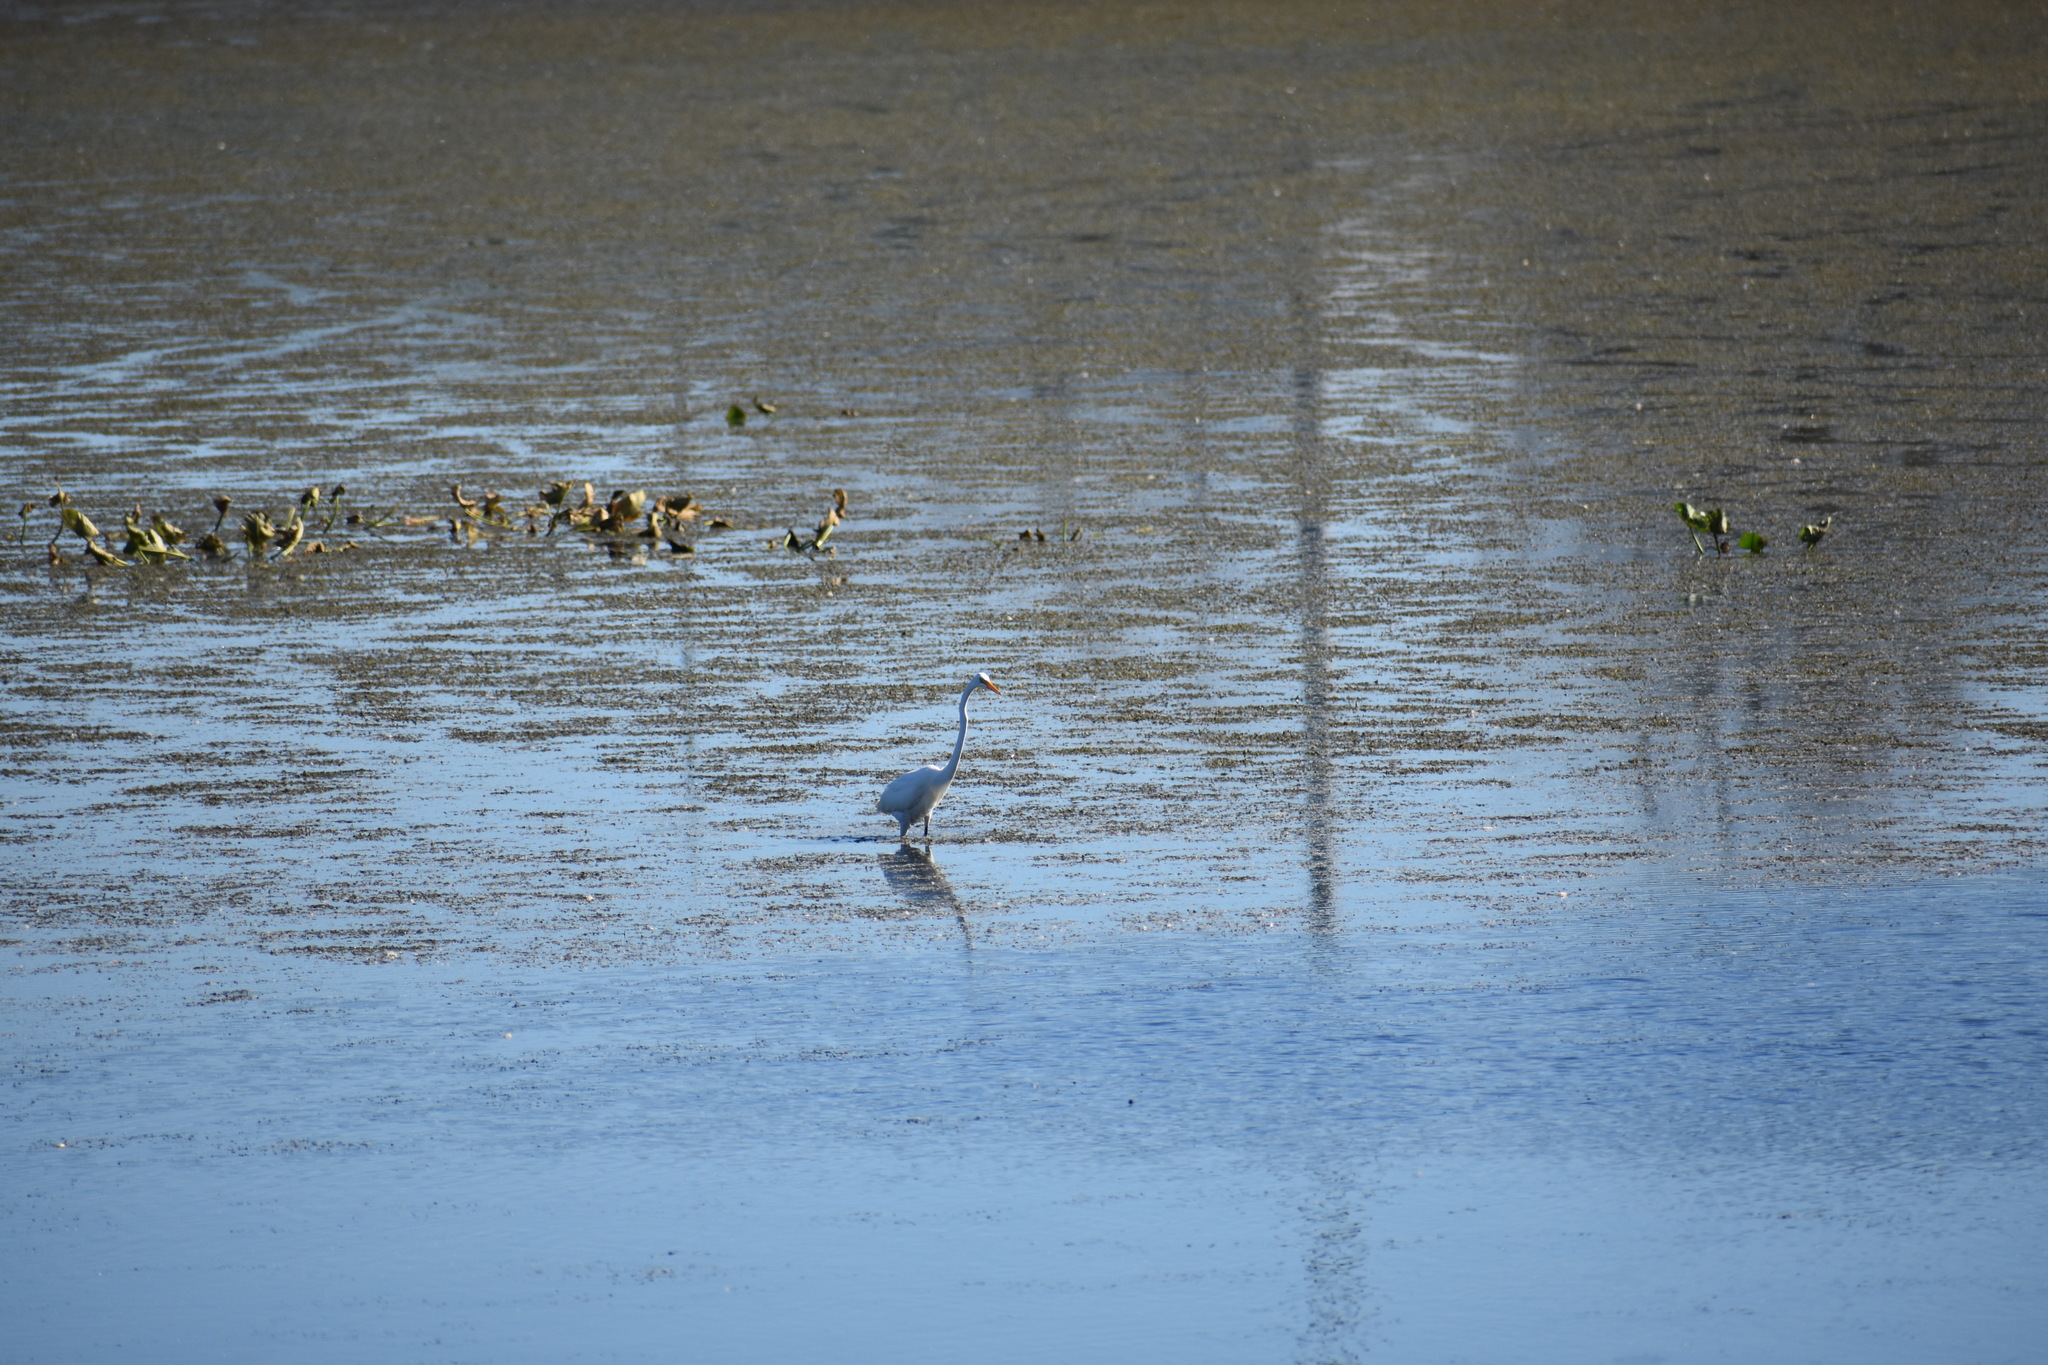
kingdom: Animalia
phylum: Chordata
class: Aves
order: Pelecaniformes
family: Ardeidae
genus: Ardea
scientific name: Ardea alba
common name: Great egret
